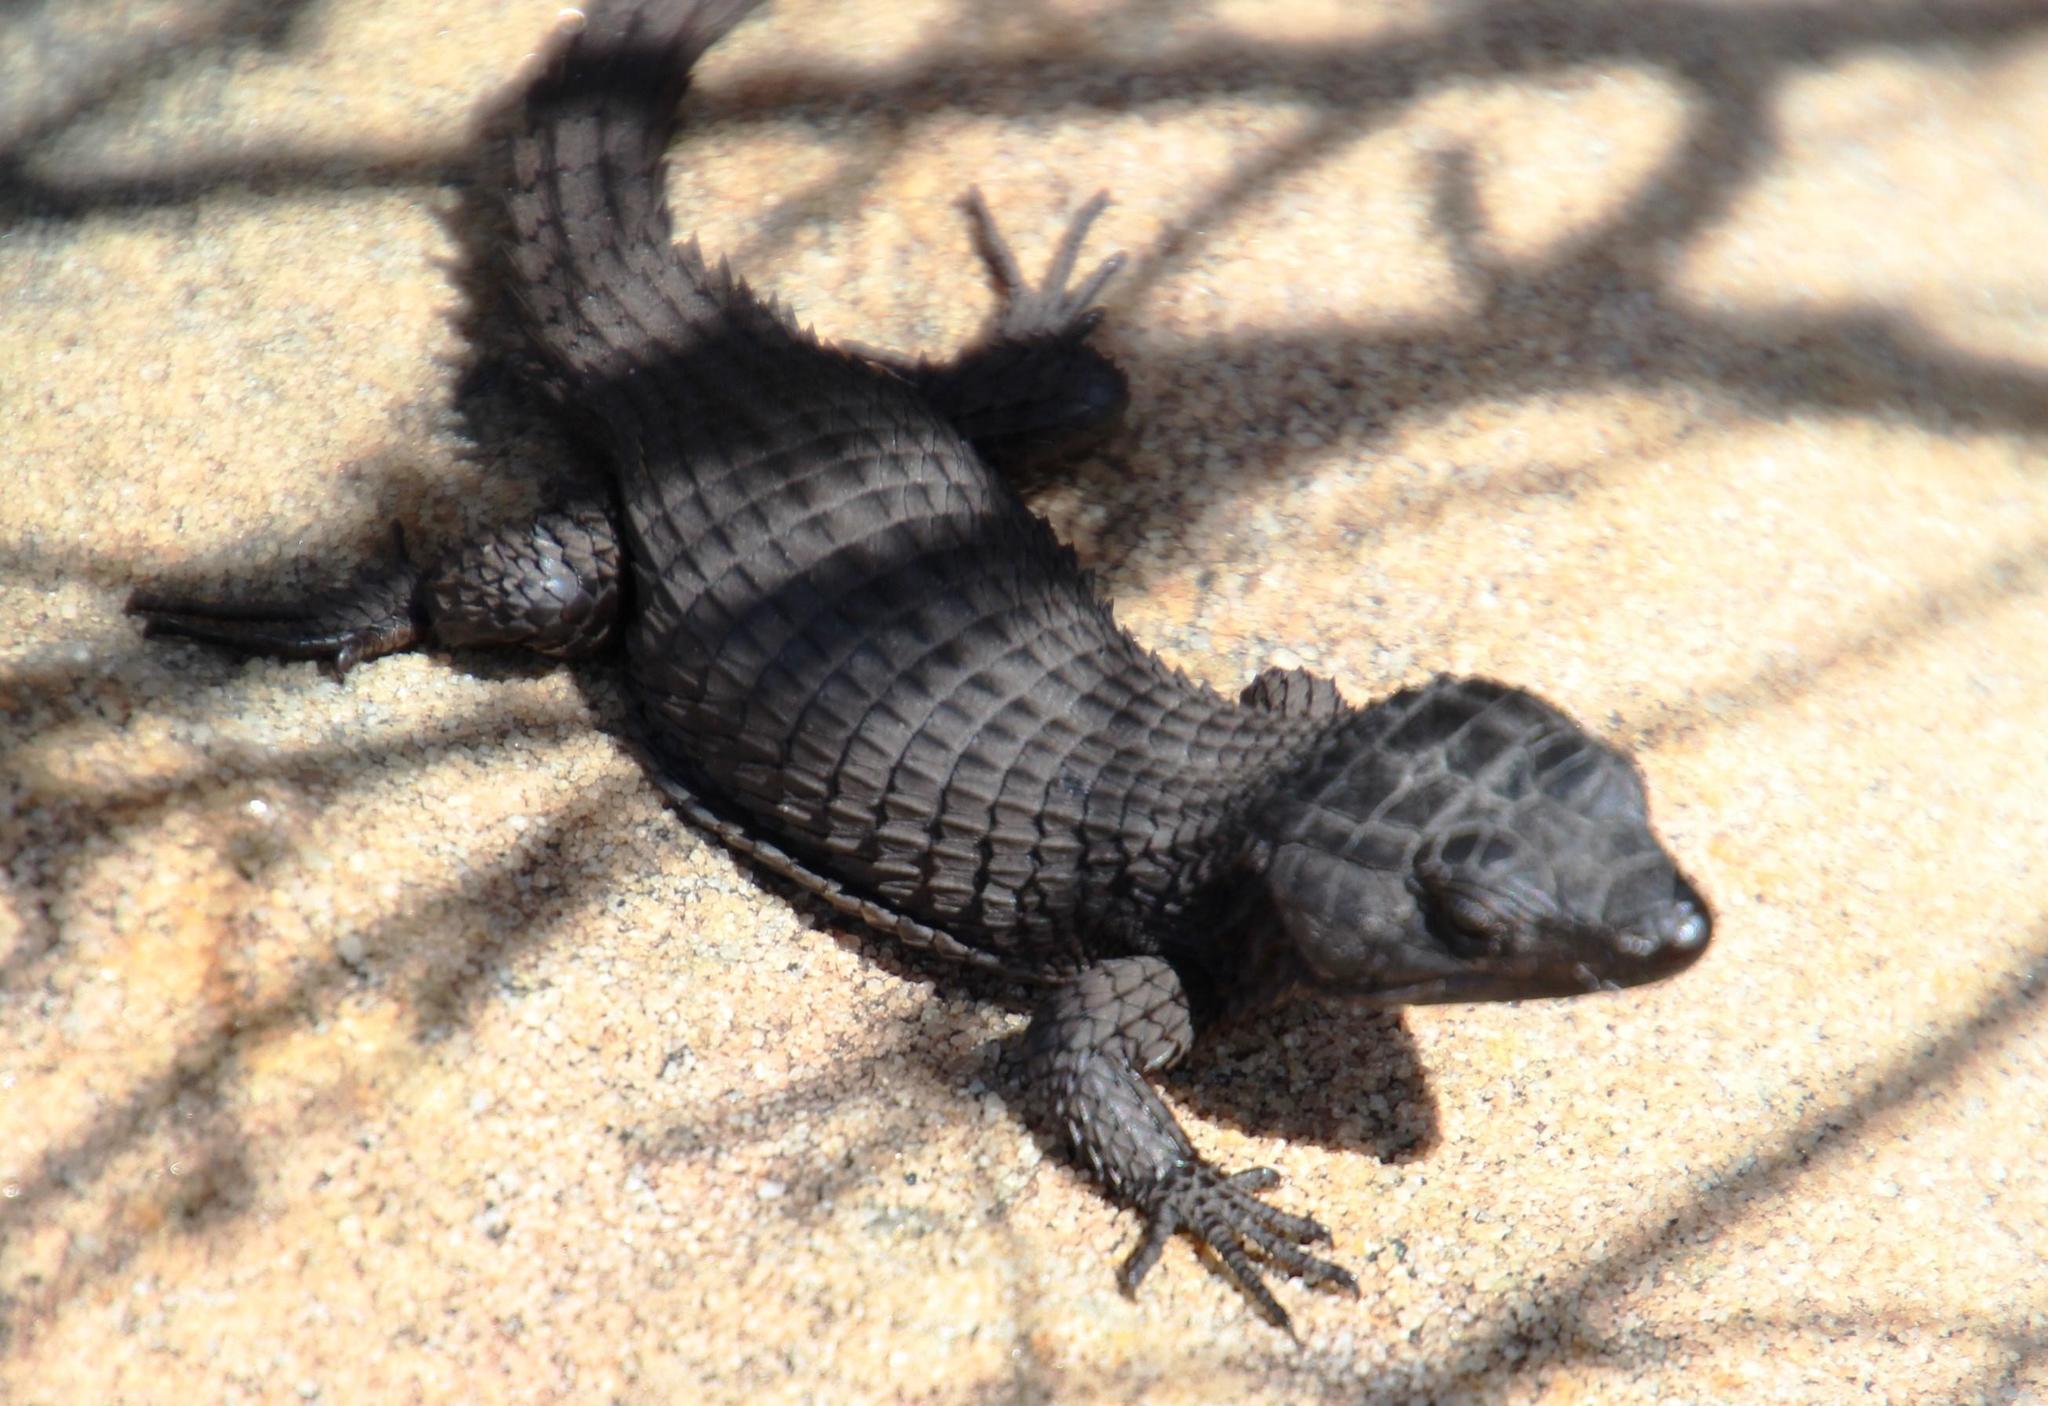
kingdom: Animalia
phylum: Chordata
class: Squamata
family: Cordylidae
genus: Cordylus
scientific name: Cordylus niger
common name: Black girdled lizard
